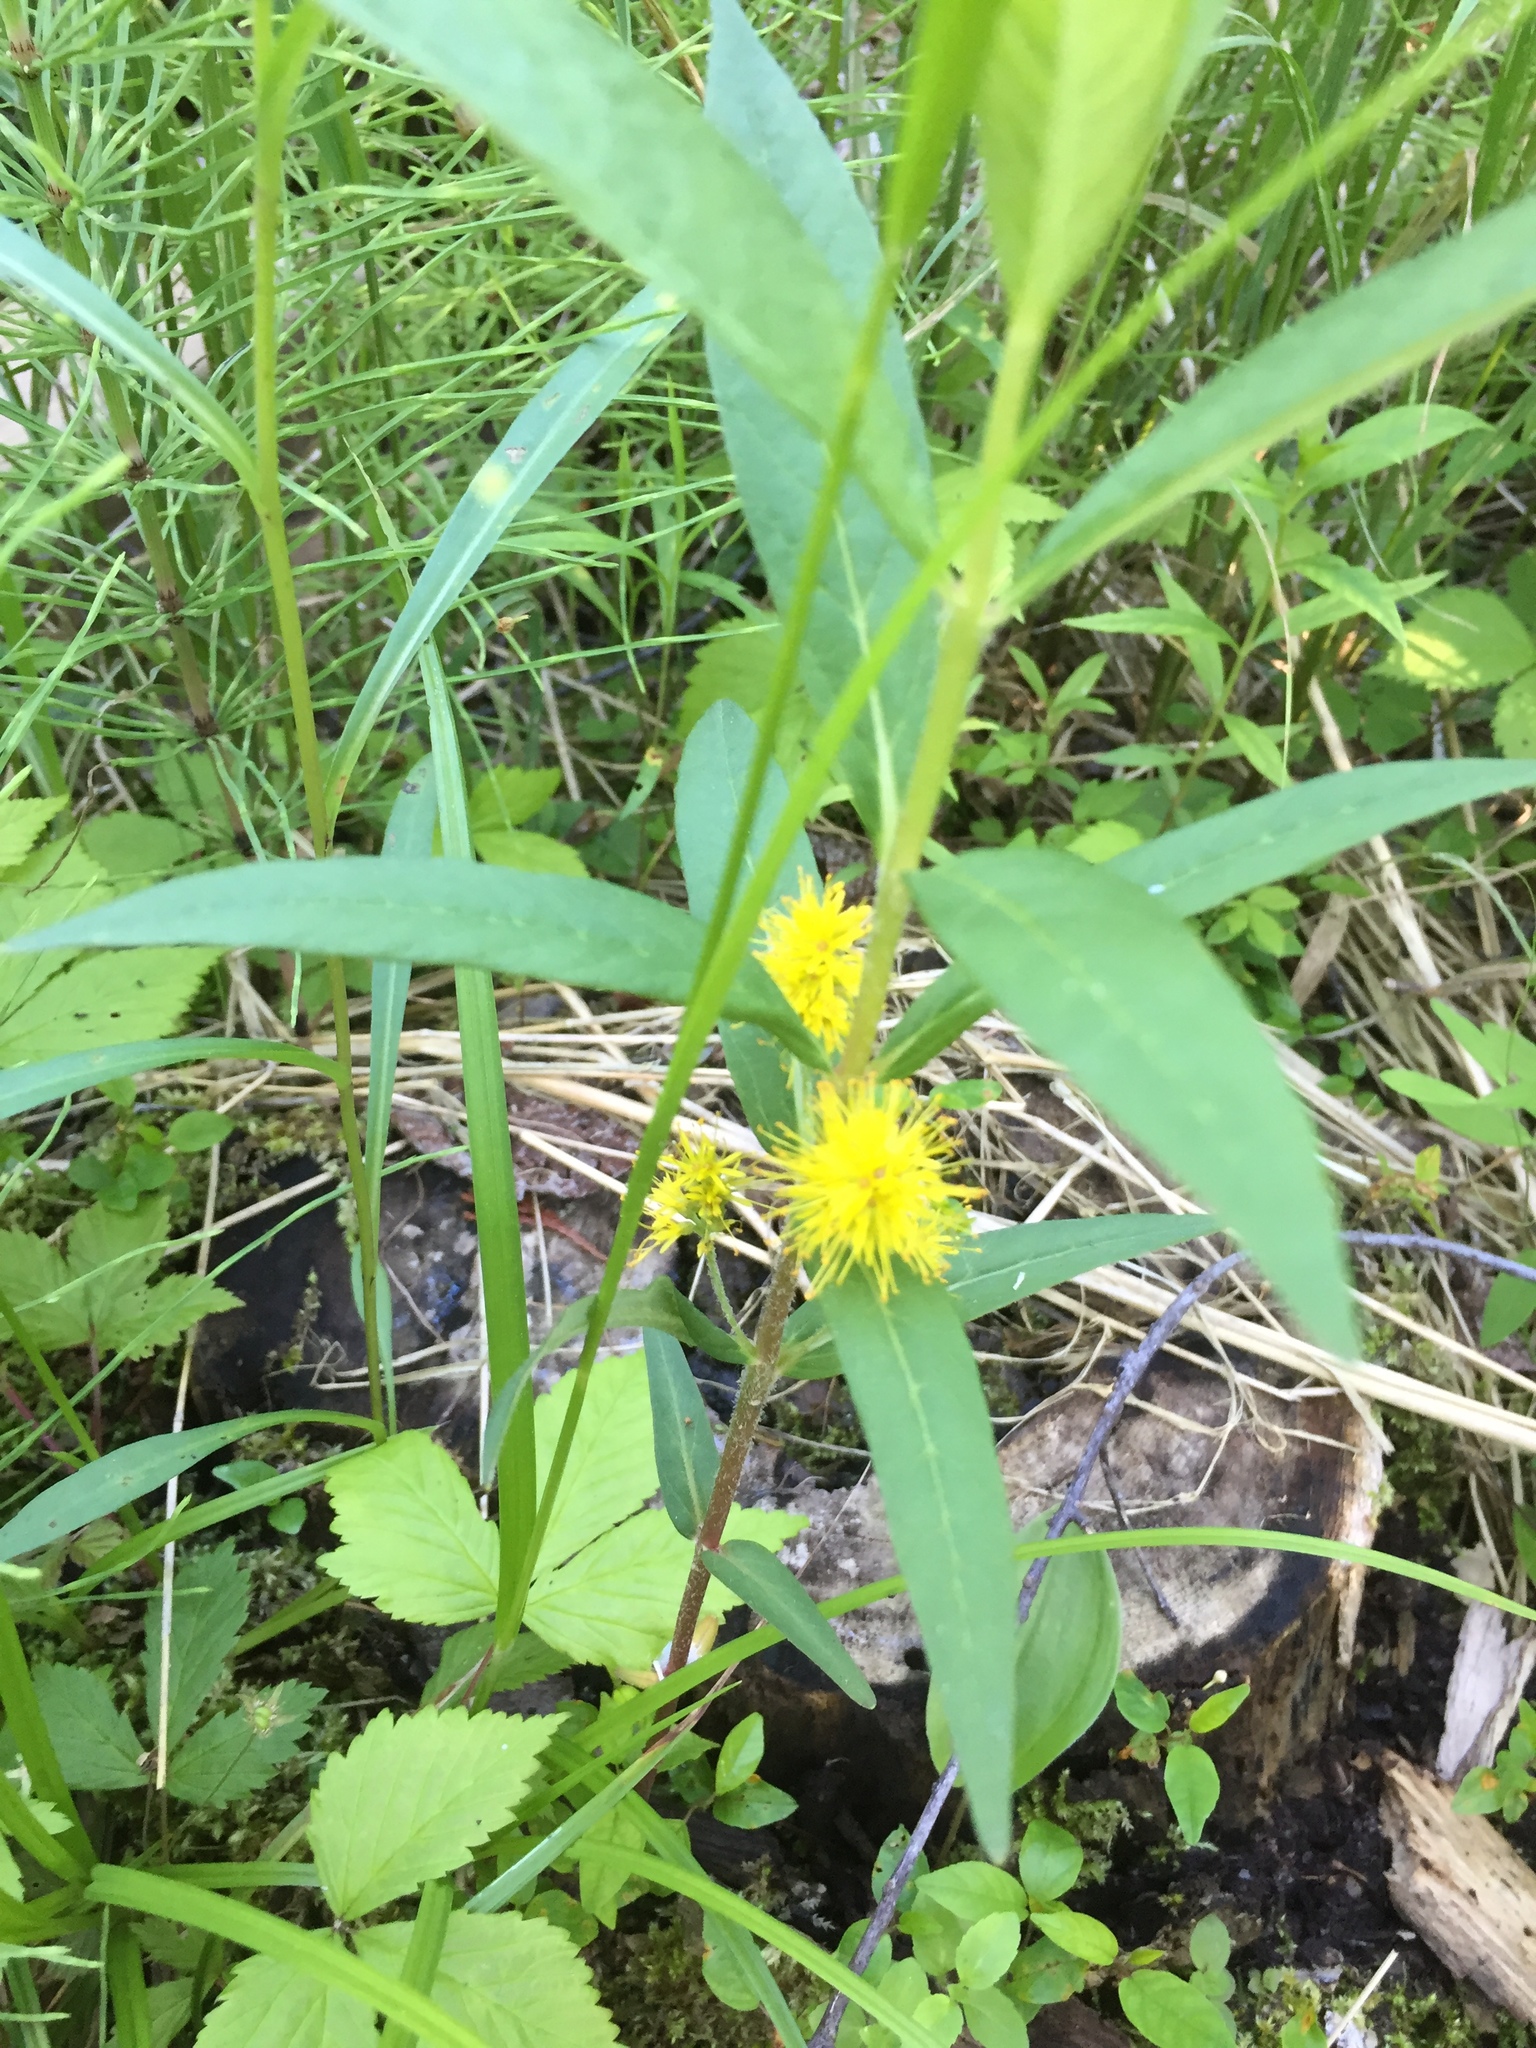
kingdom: Plantae
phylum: Tracheophyta
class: Magnoliopsida
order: Ericales
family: Primulaceae
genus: Lysimachia
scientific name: Lysimachia thyrsiflora
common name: Tufted loosestrife
